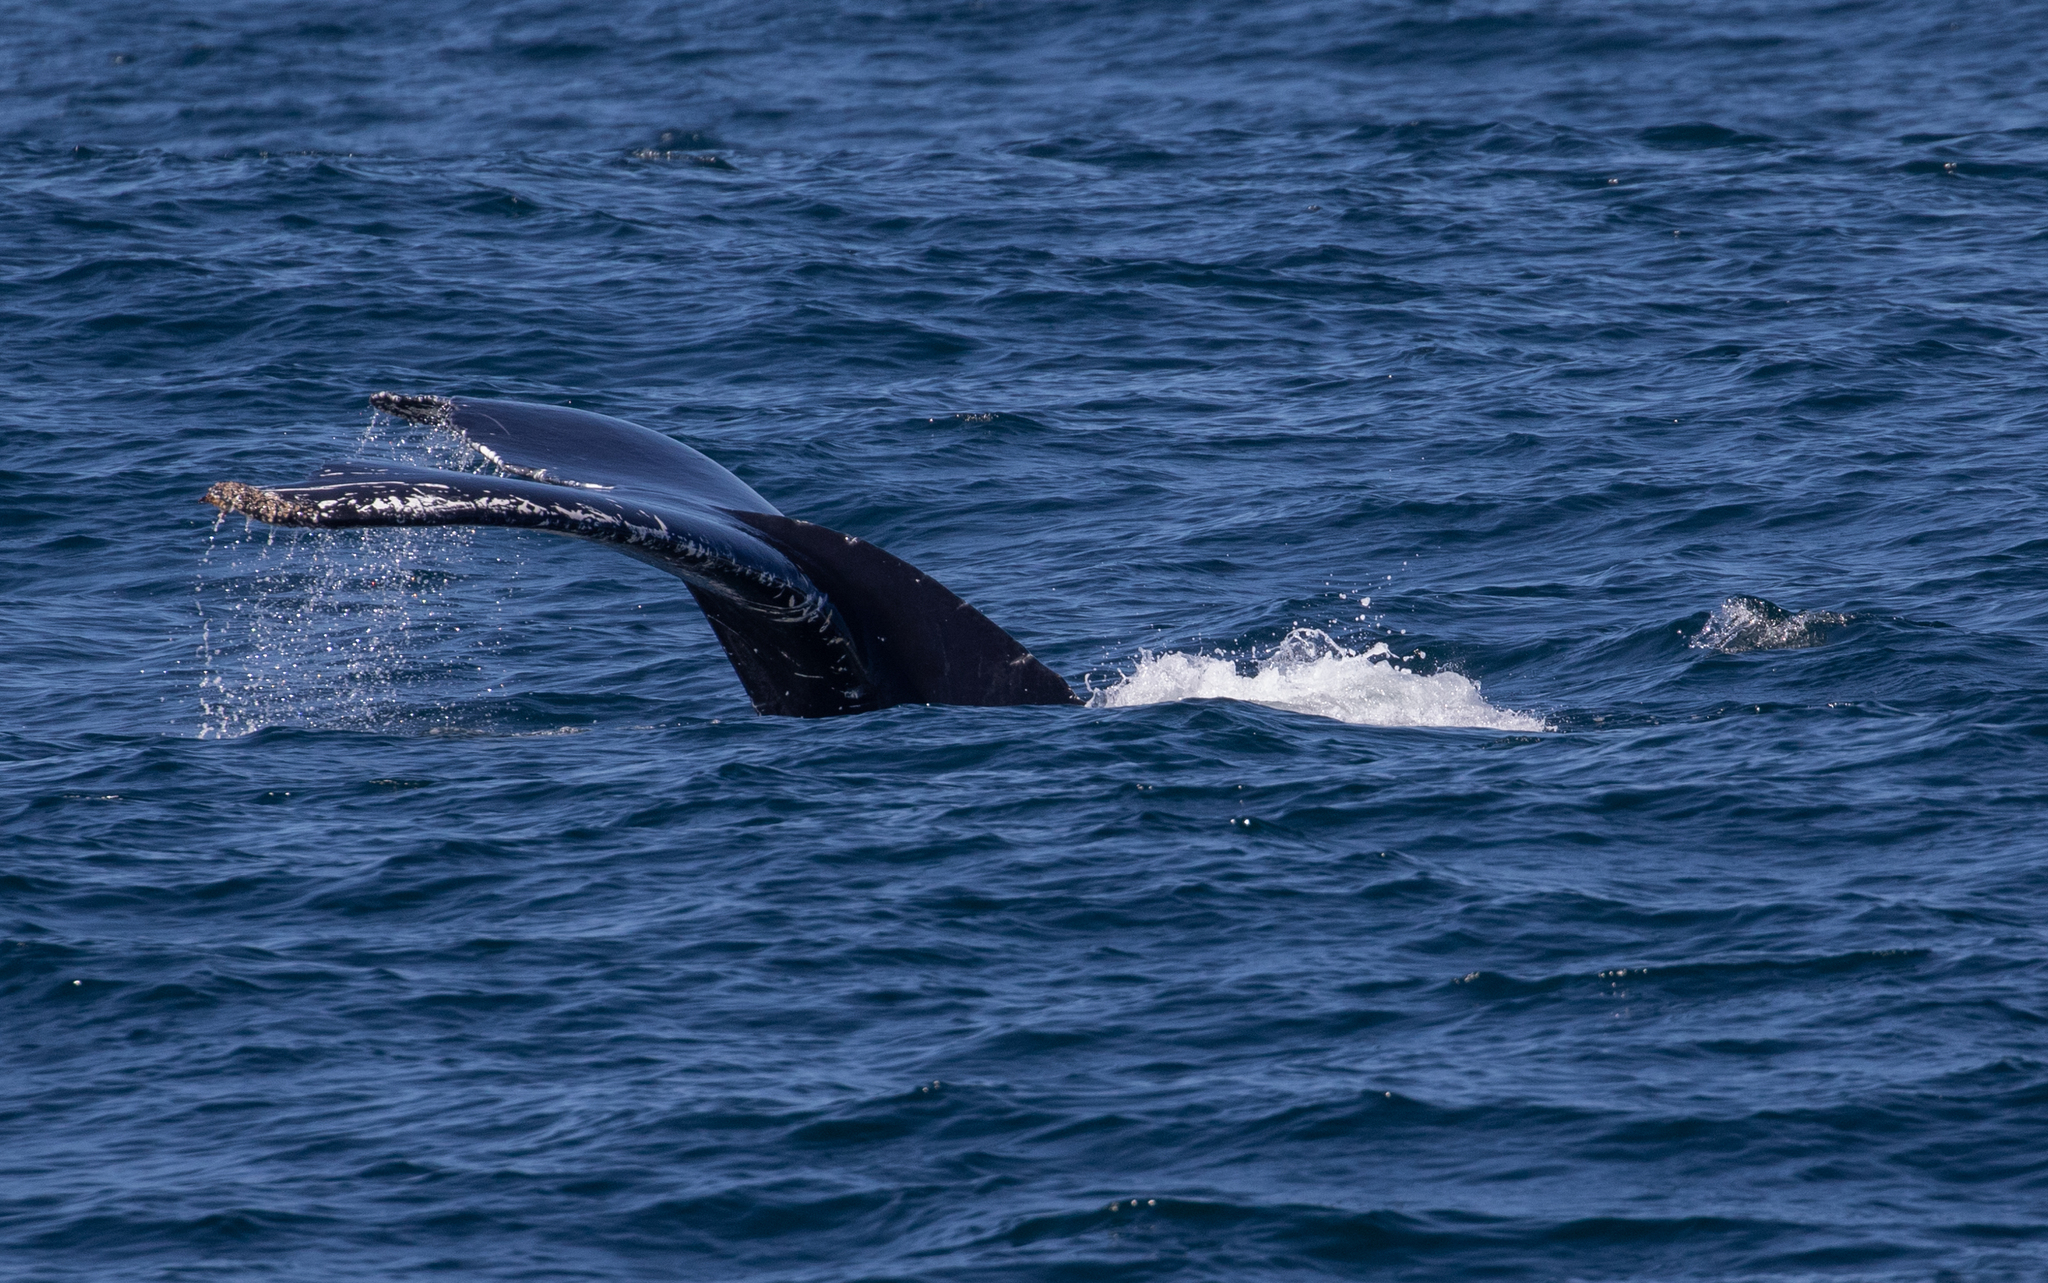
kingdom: Animalia
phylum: Chordata
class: Mammalia
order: Cetacea
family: Balaenopteridae
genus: Megaptera
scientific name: Megaptera novaeangliae
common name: Humpback whale
